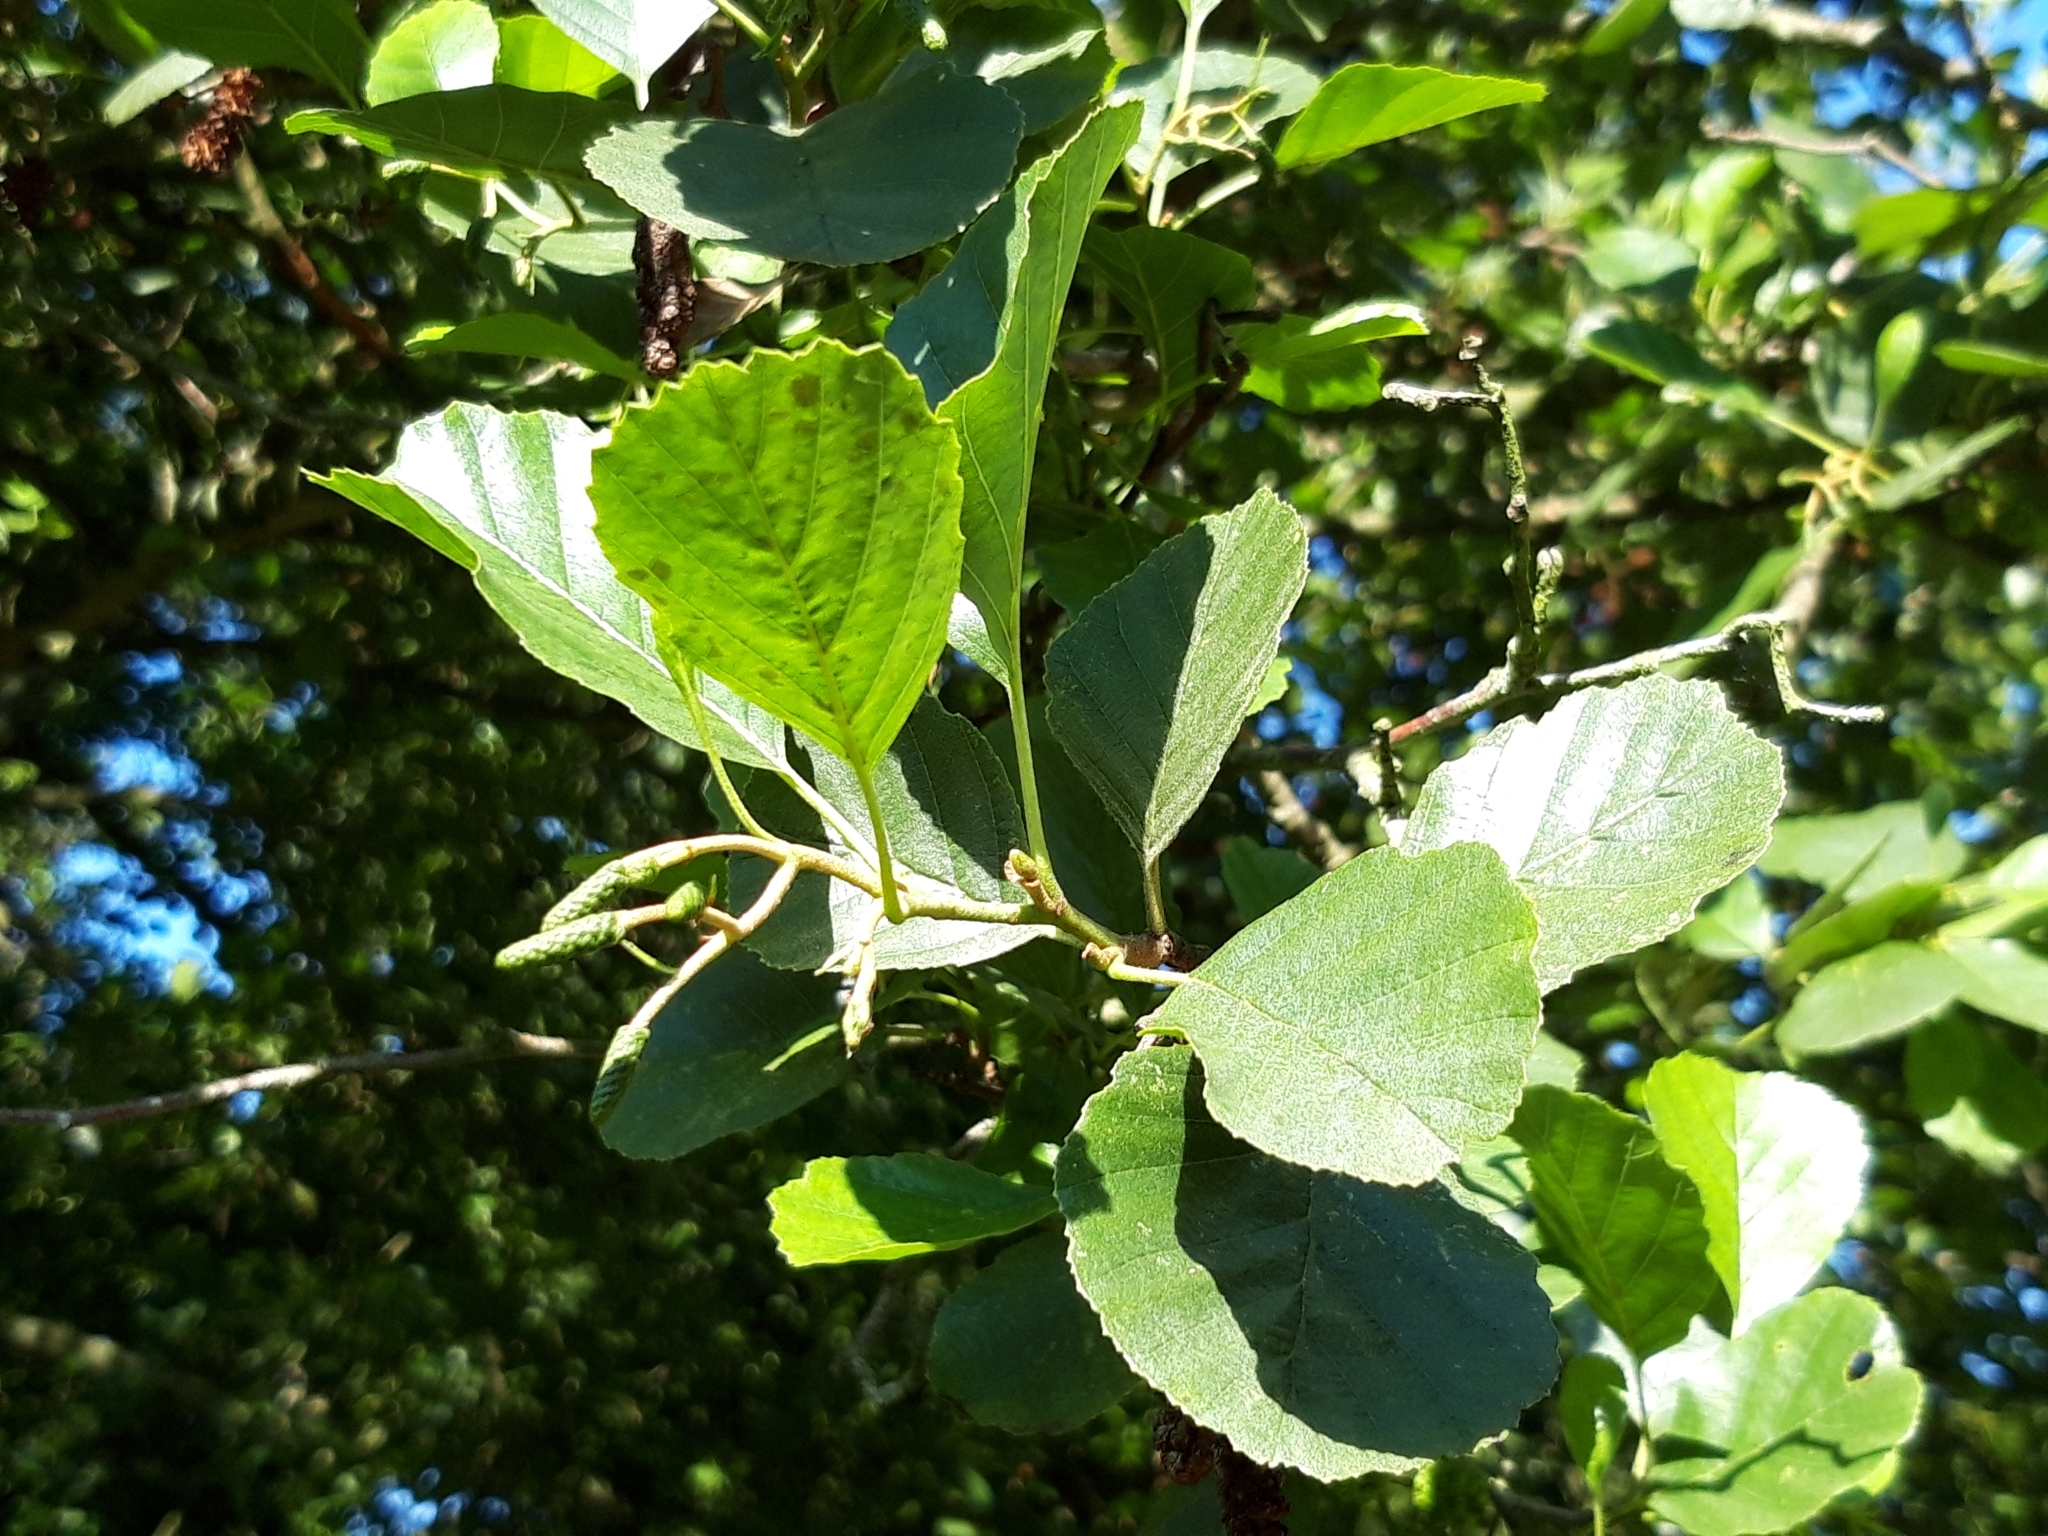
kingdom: Plantae
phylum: Tracheophyta
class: Magnoliopsida
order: Fagales
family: Betulaceae
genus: Alnus
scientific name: Alnus glutinosa
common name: Black alder
